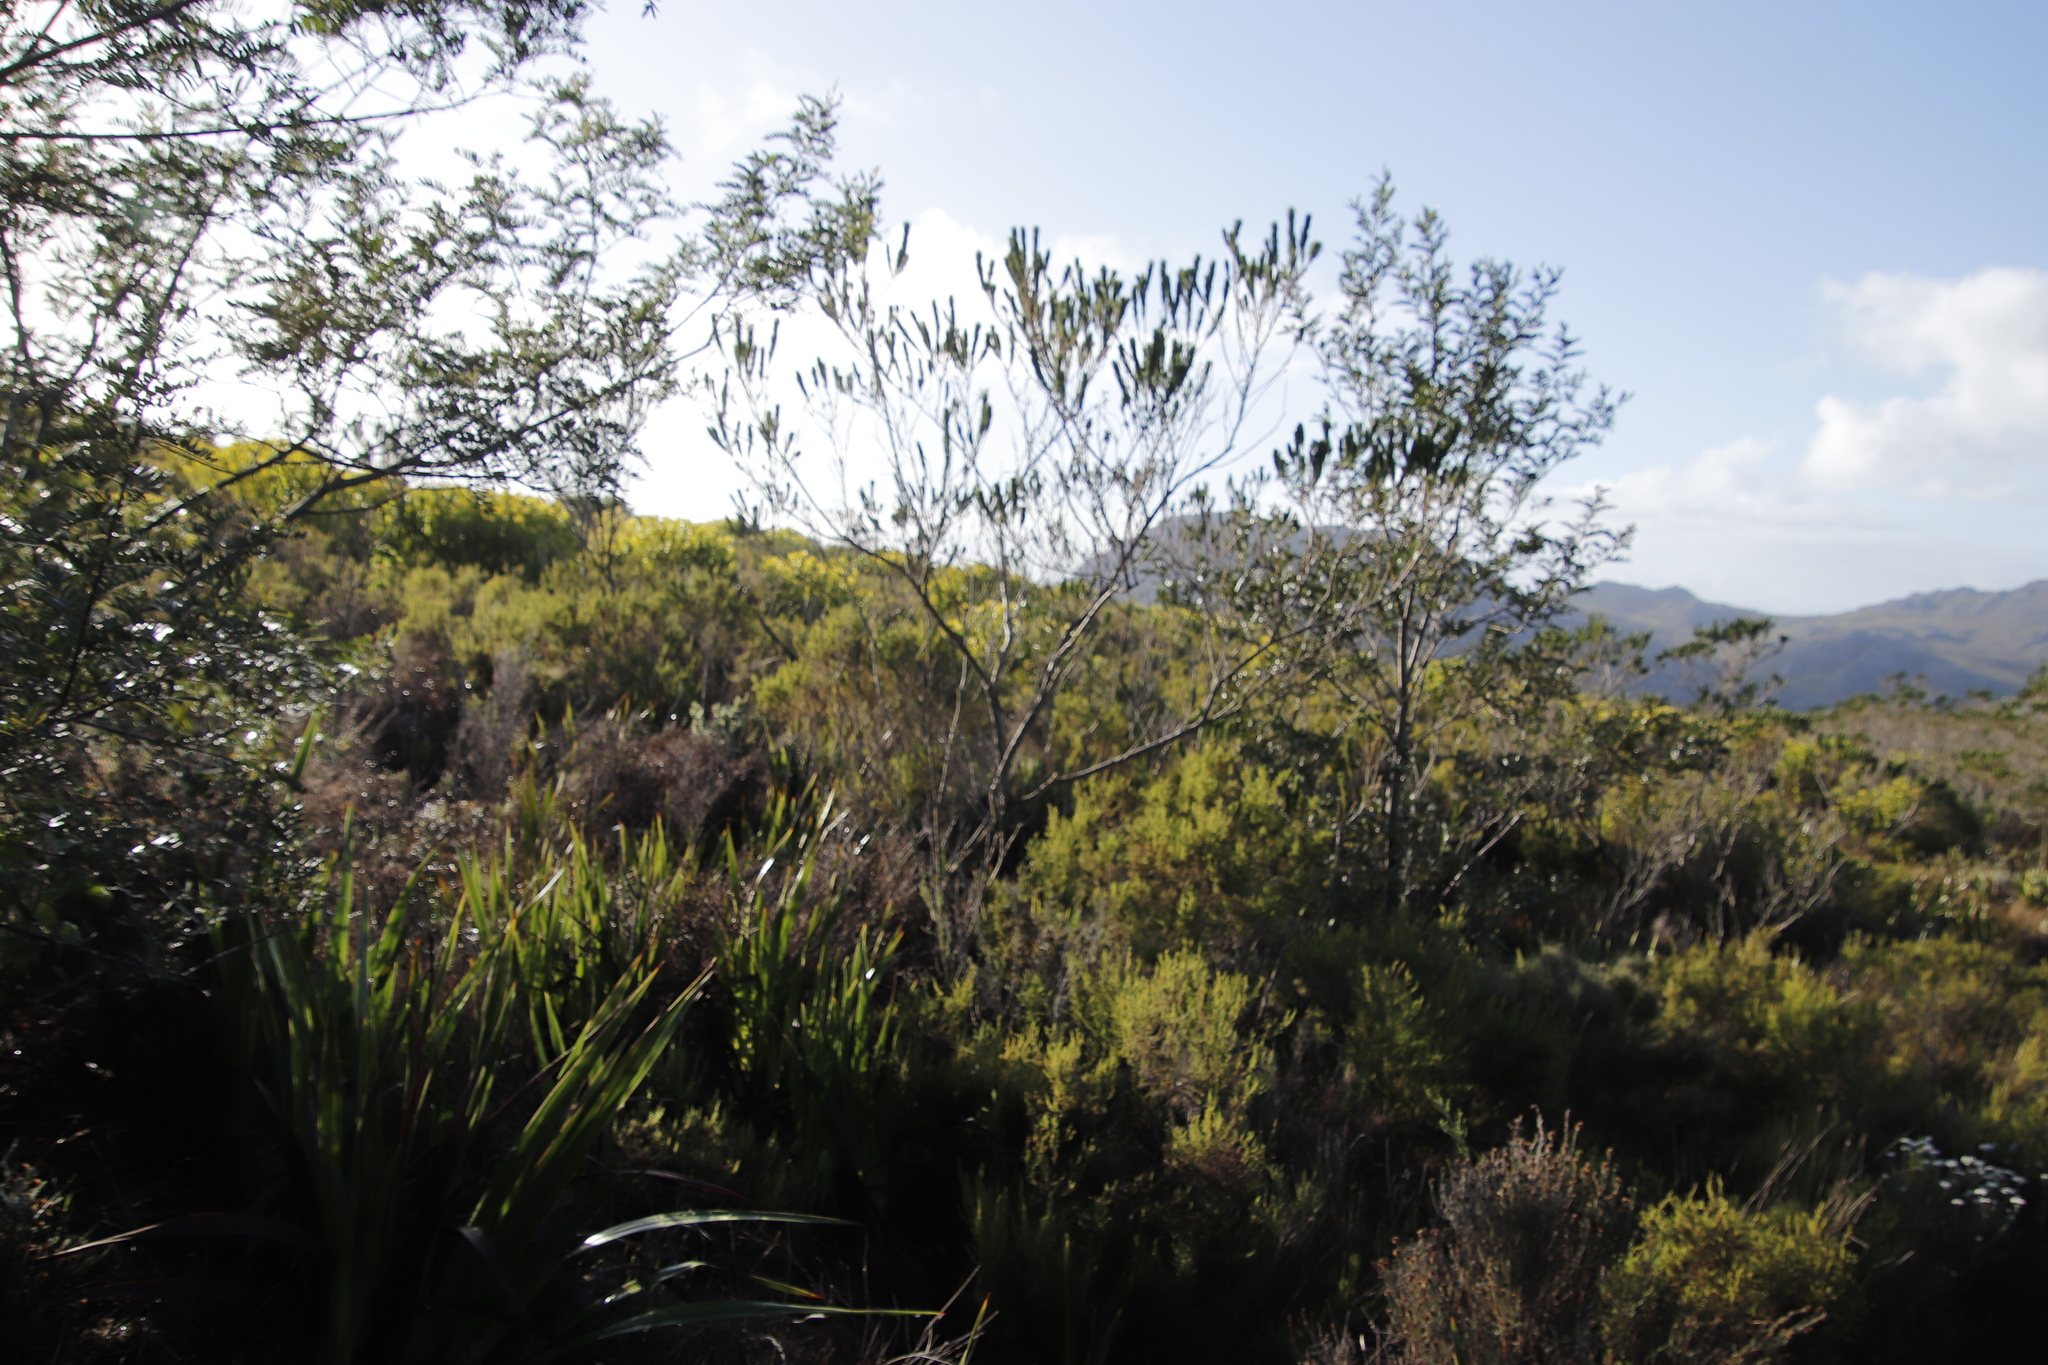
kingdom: Plantae
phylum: Tracheophyta
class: Magnoliopsida
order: Fabales
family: Fabaceae
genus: Psoralea
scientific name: Psoralea pinnata
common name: African scurfpea
